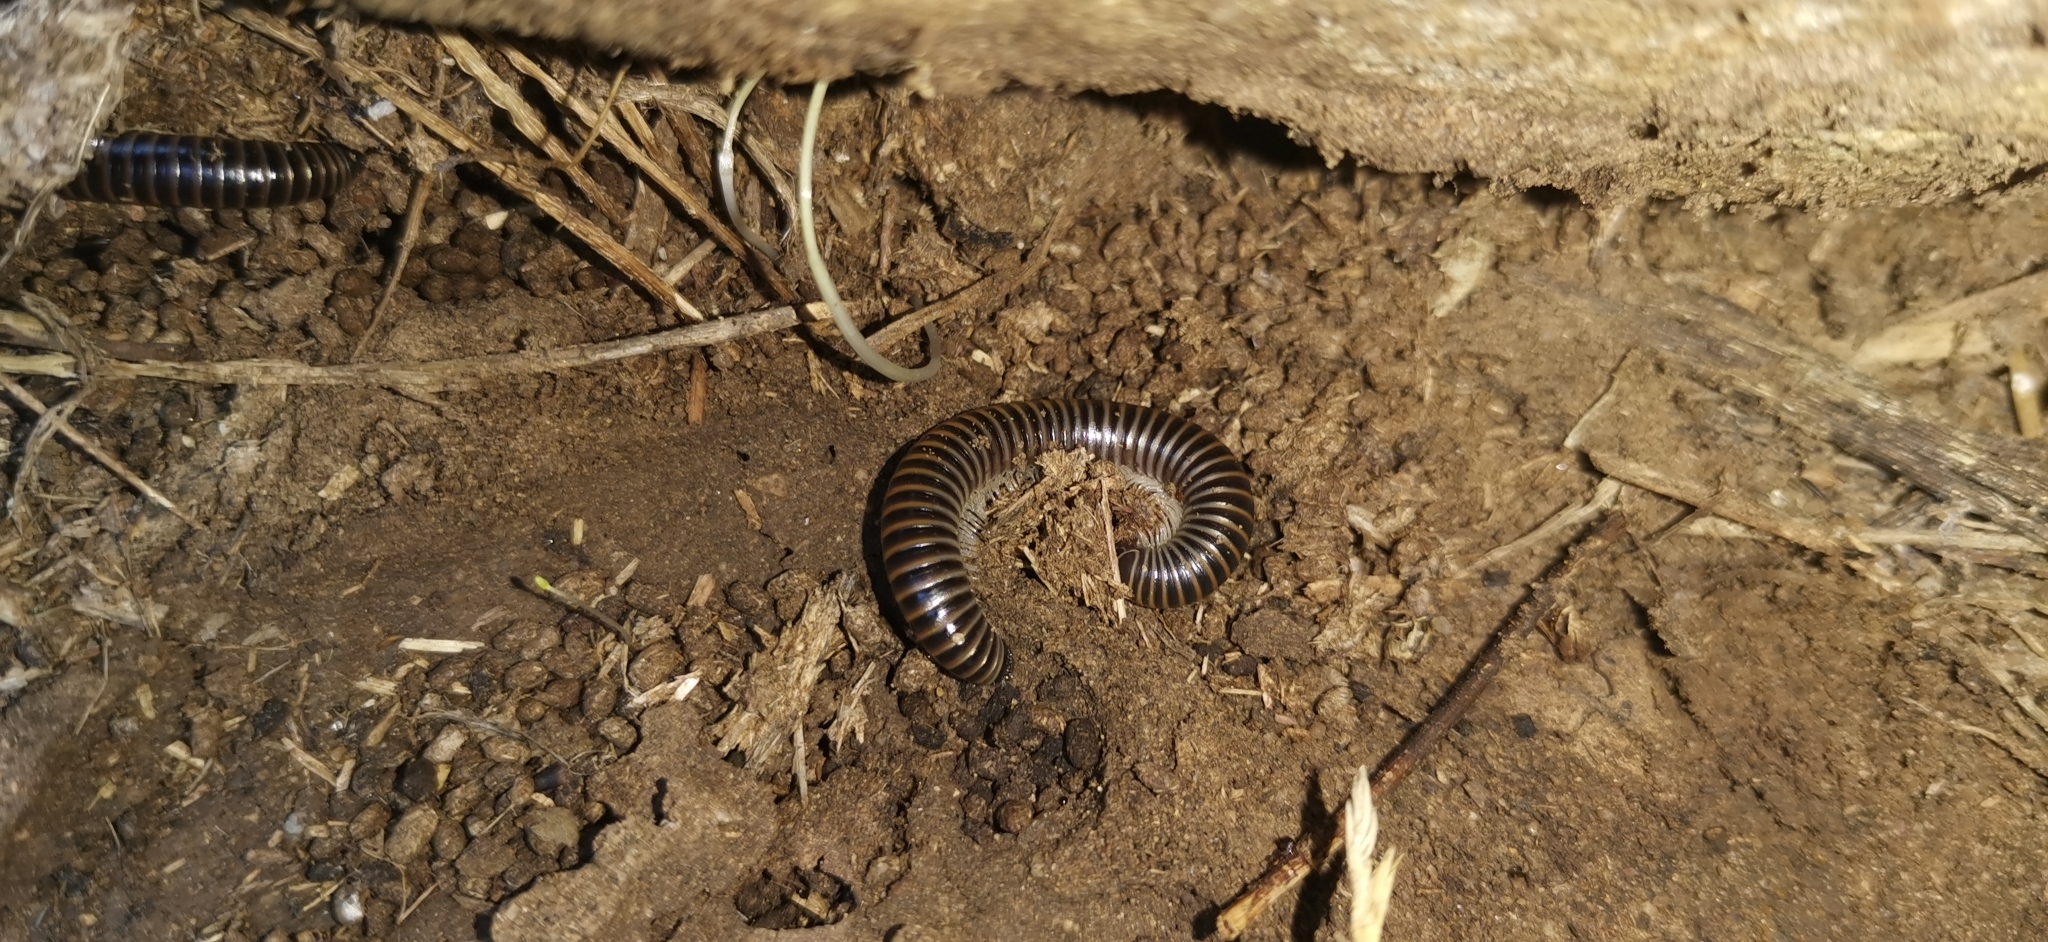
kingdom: Animalia
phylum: Arthropoda
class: Diplopoda
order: Julida
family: Julidae
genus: Acanthoiulus
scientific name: Acanthoiulus cassinensis
